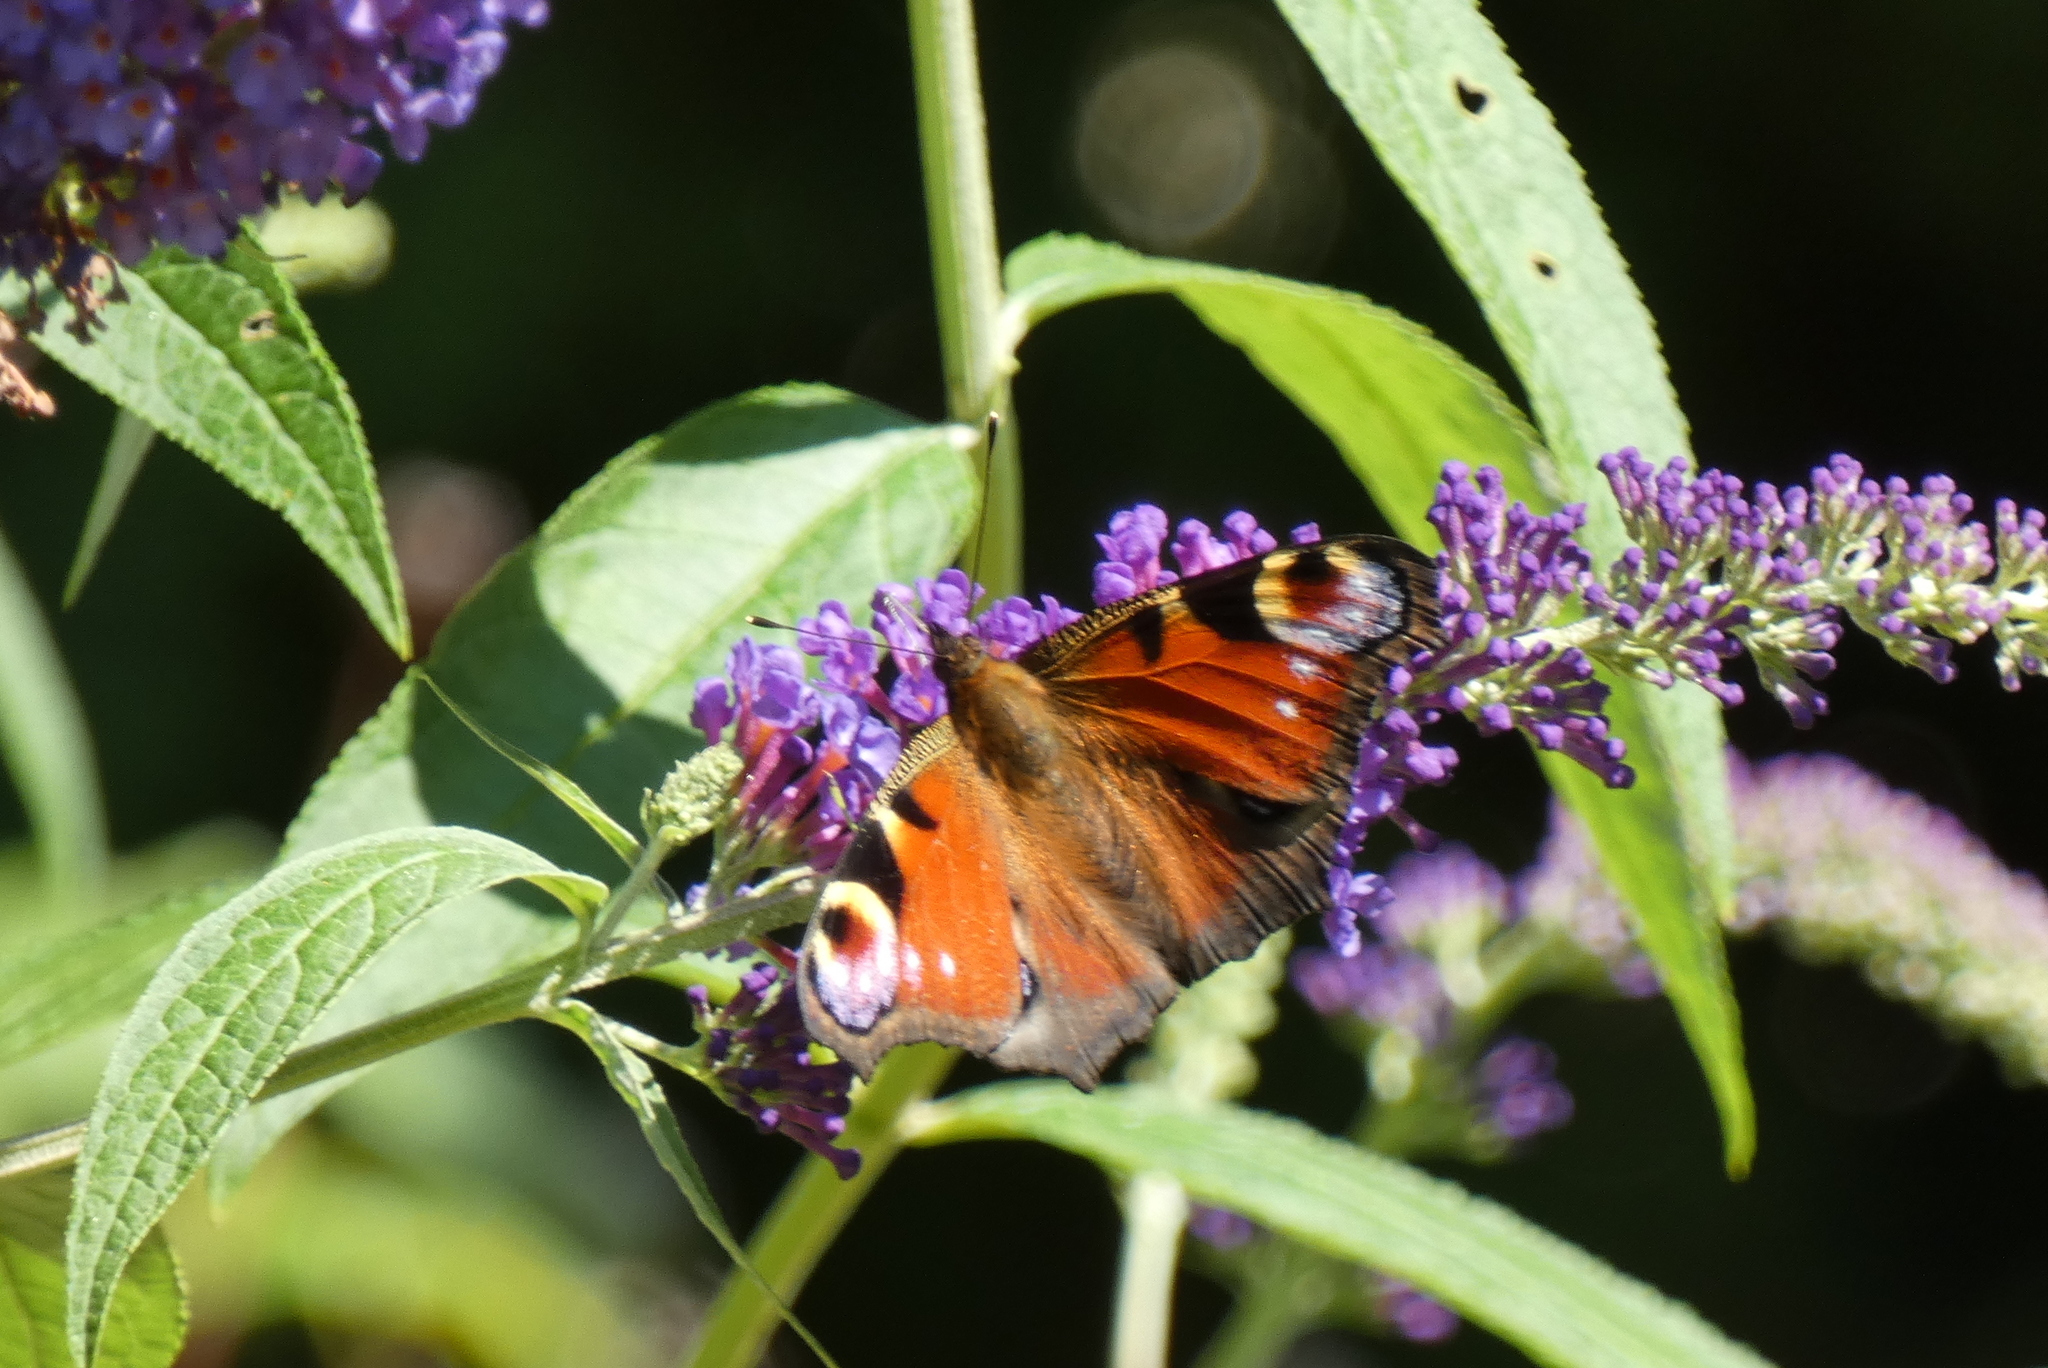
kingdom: Animalia
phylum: Arthropoda
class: Insecta
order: Lepidoptera
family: Nymphalidae
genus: Aglais
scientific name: Aglais io
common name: Peacock
